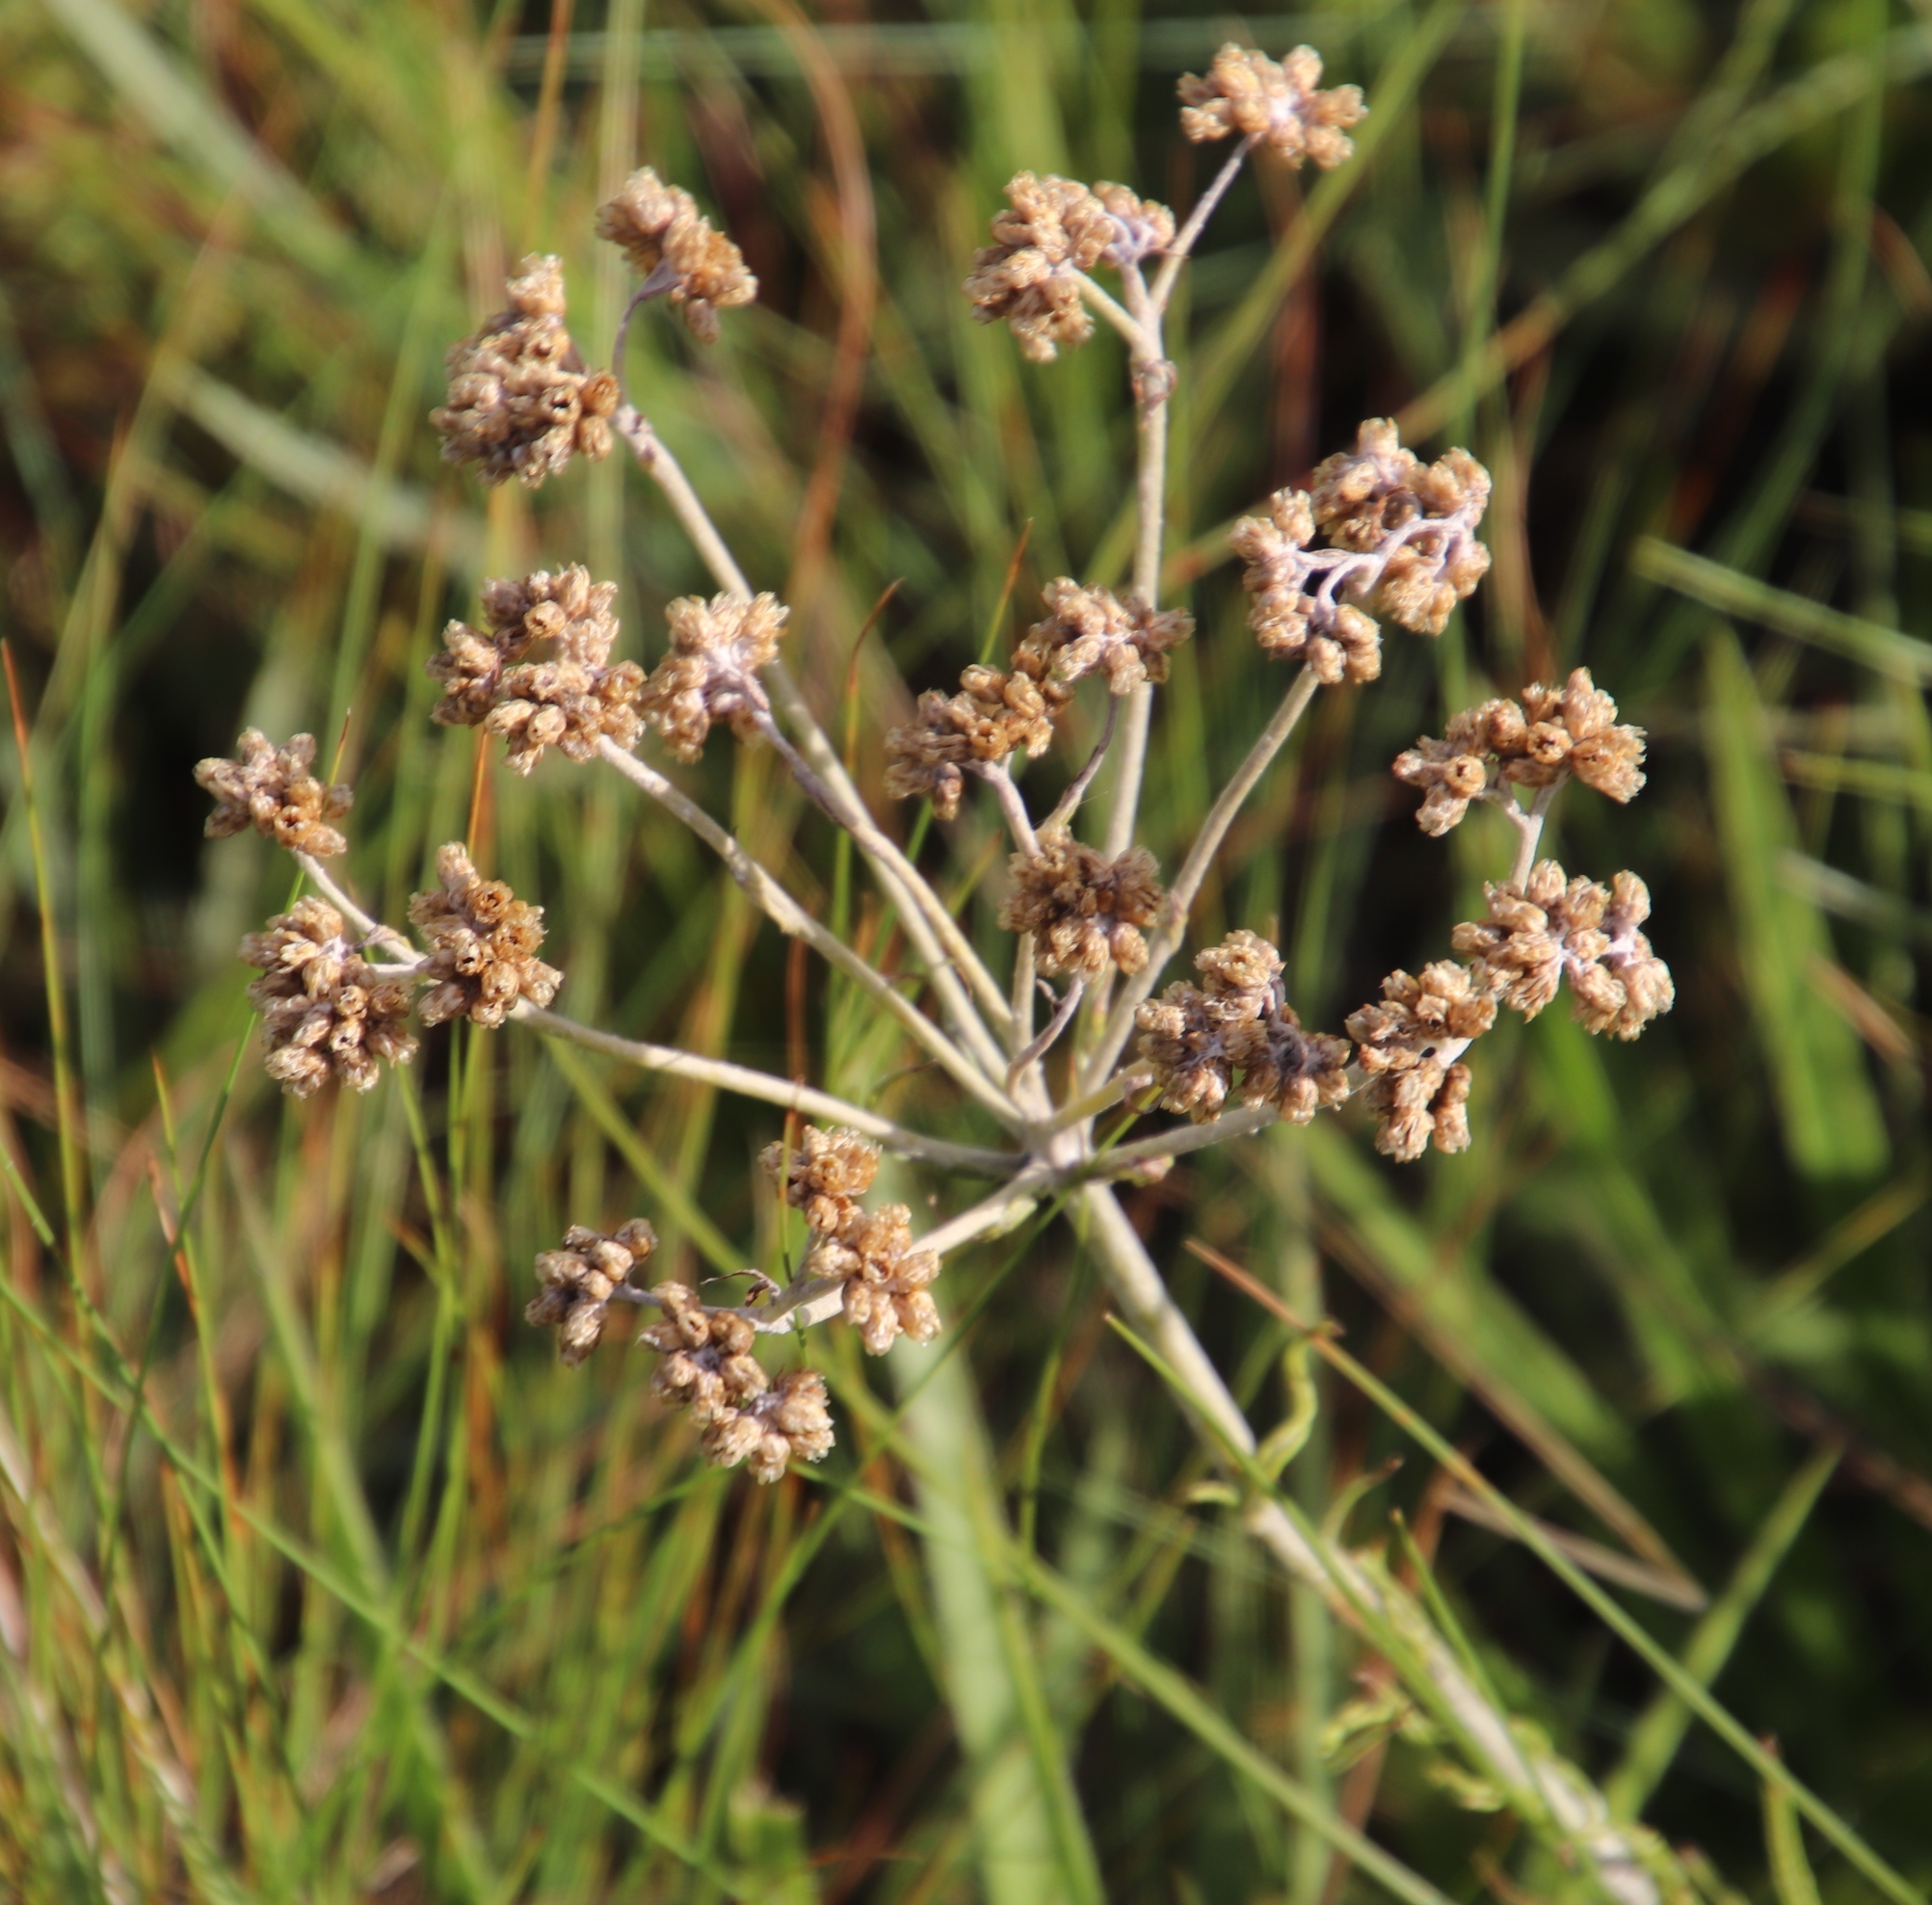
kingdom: Plantae
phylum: Tracheophyta
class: Magnoliopsida
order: Asterales
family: Asteraceae
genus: Helichrysum
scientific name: Helichrysum miconiifolium
